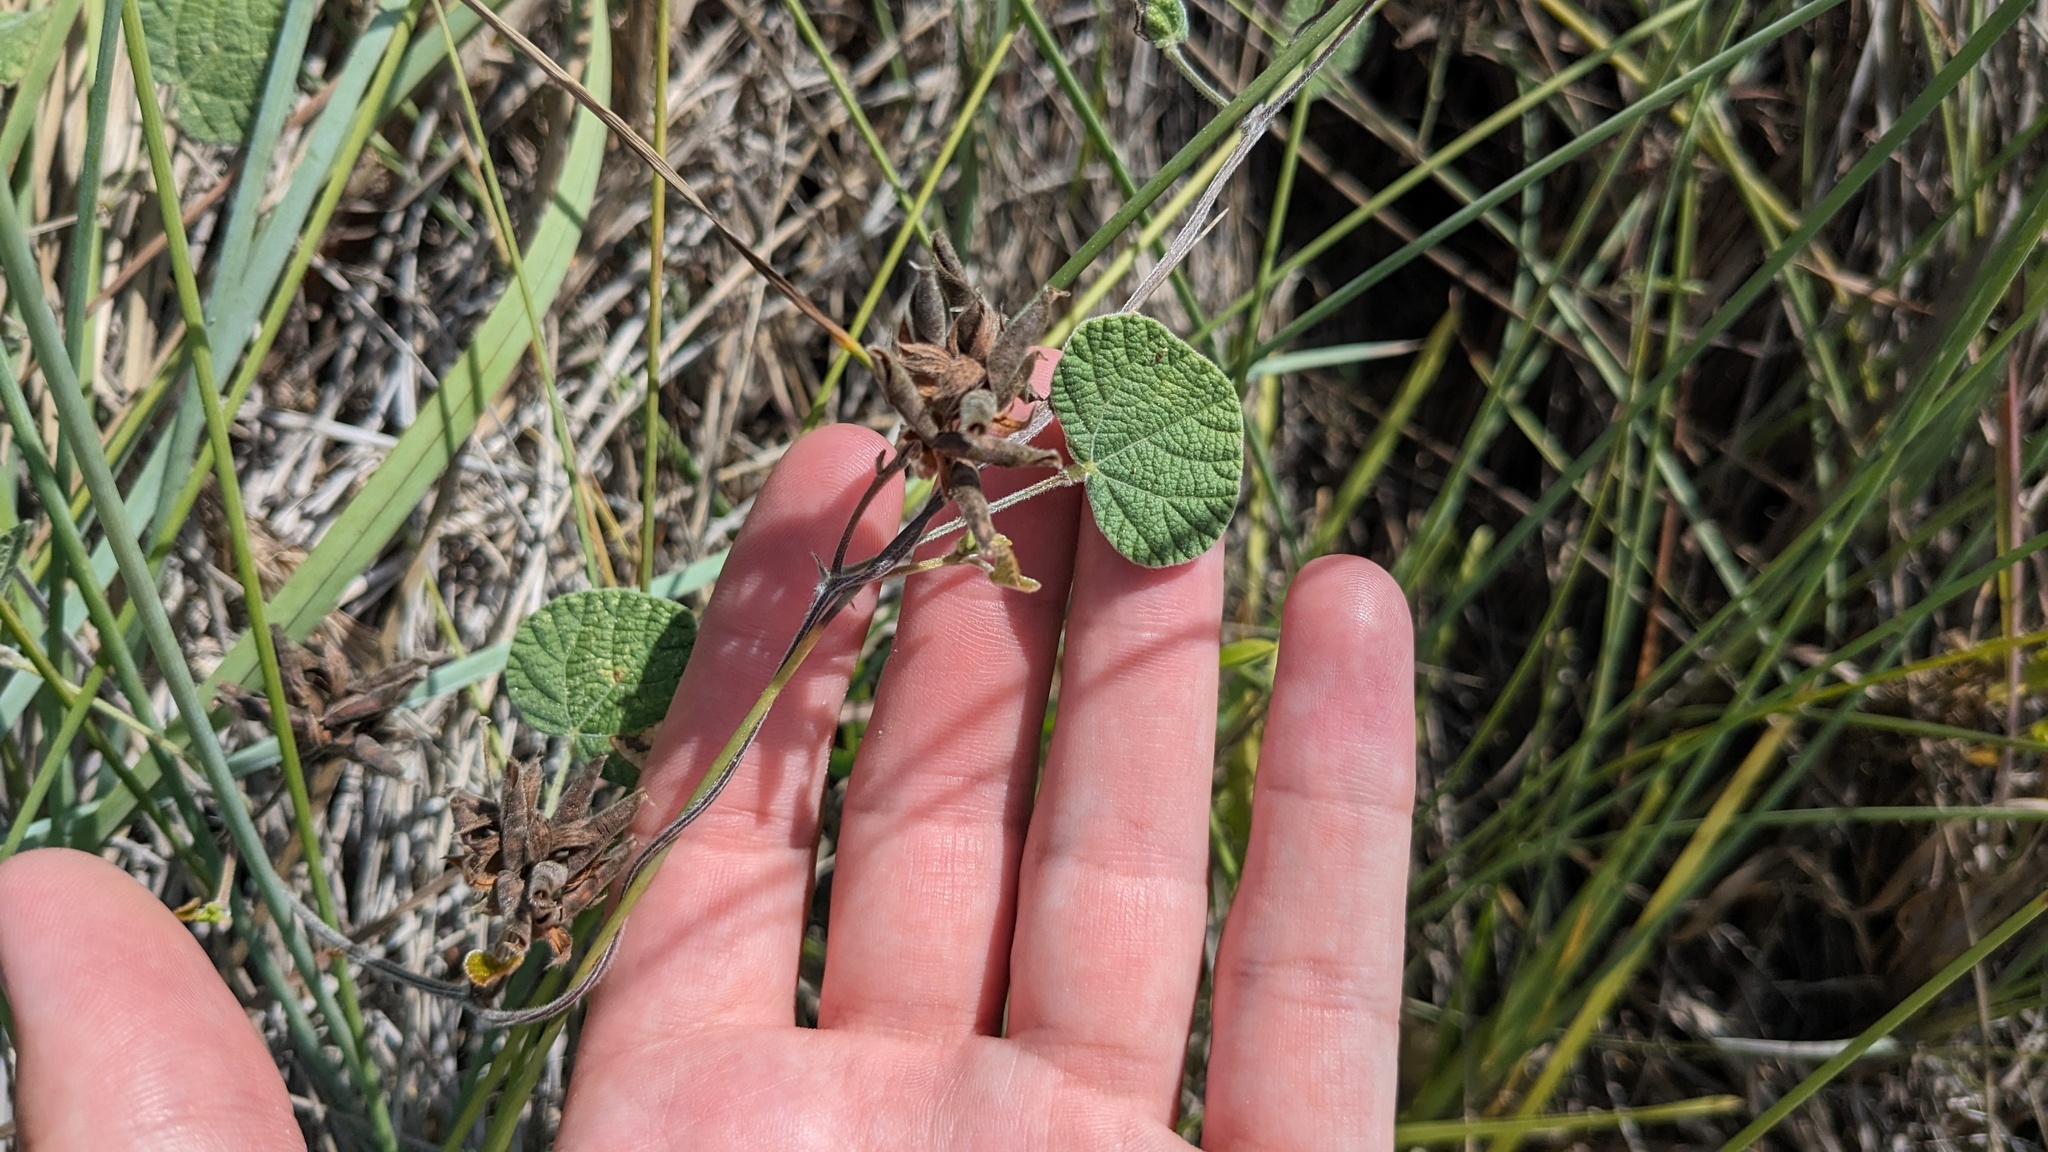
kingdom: Plantae
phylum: Tracheophyta
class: Magnoliopsida
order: Fabales
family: Fabaceae
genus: Rhynchosia
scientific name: Rhynchosia americana
